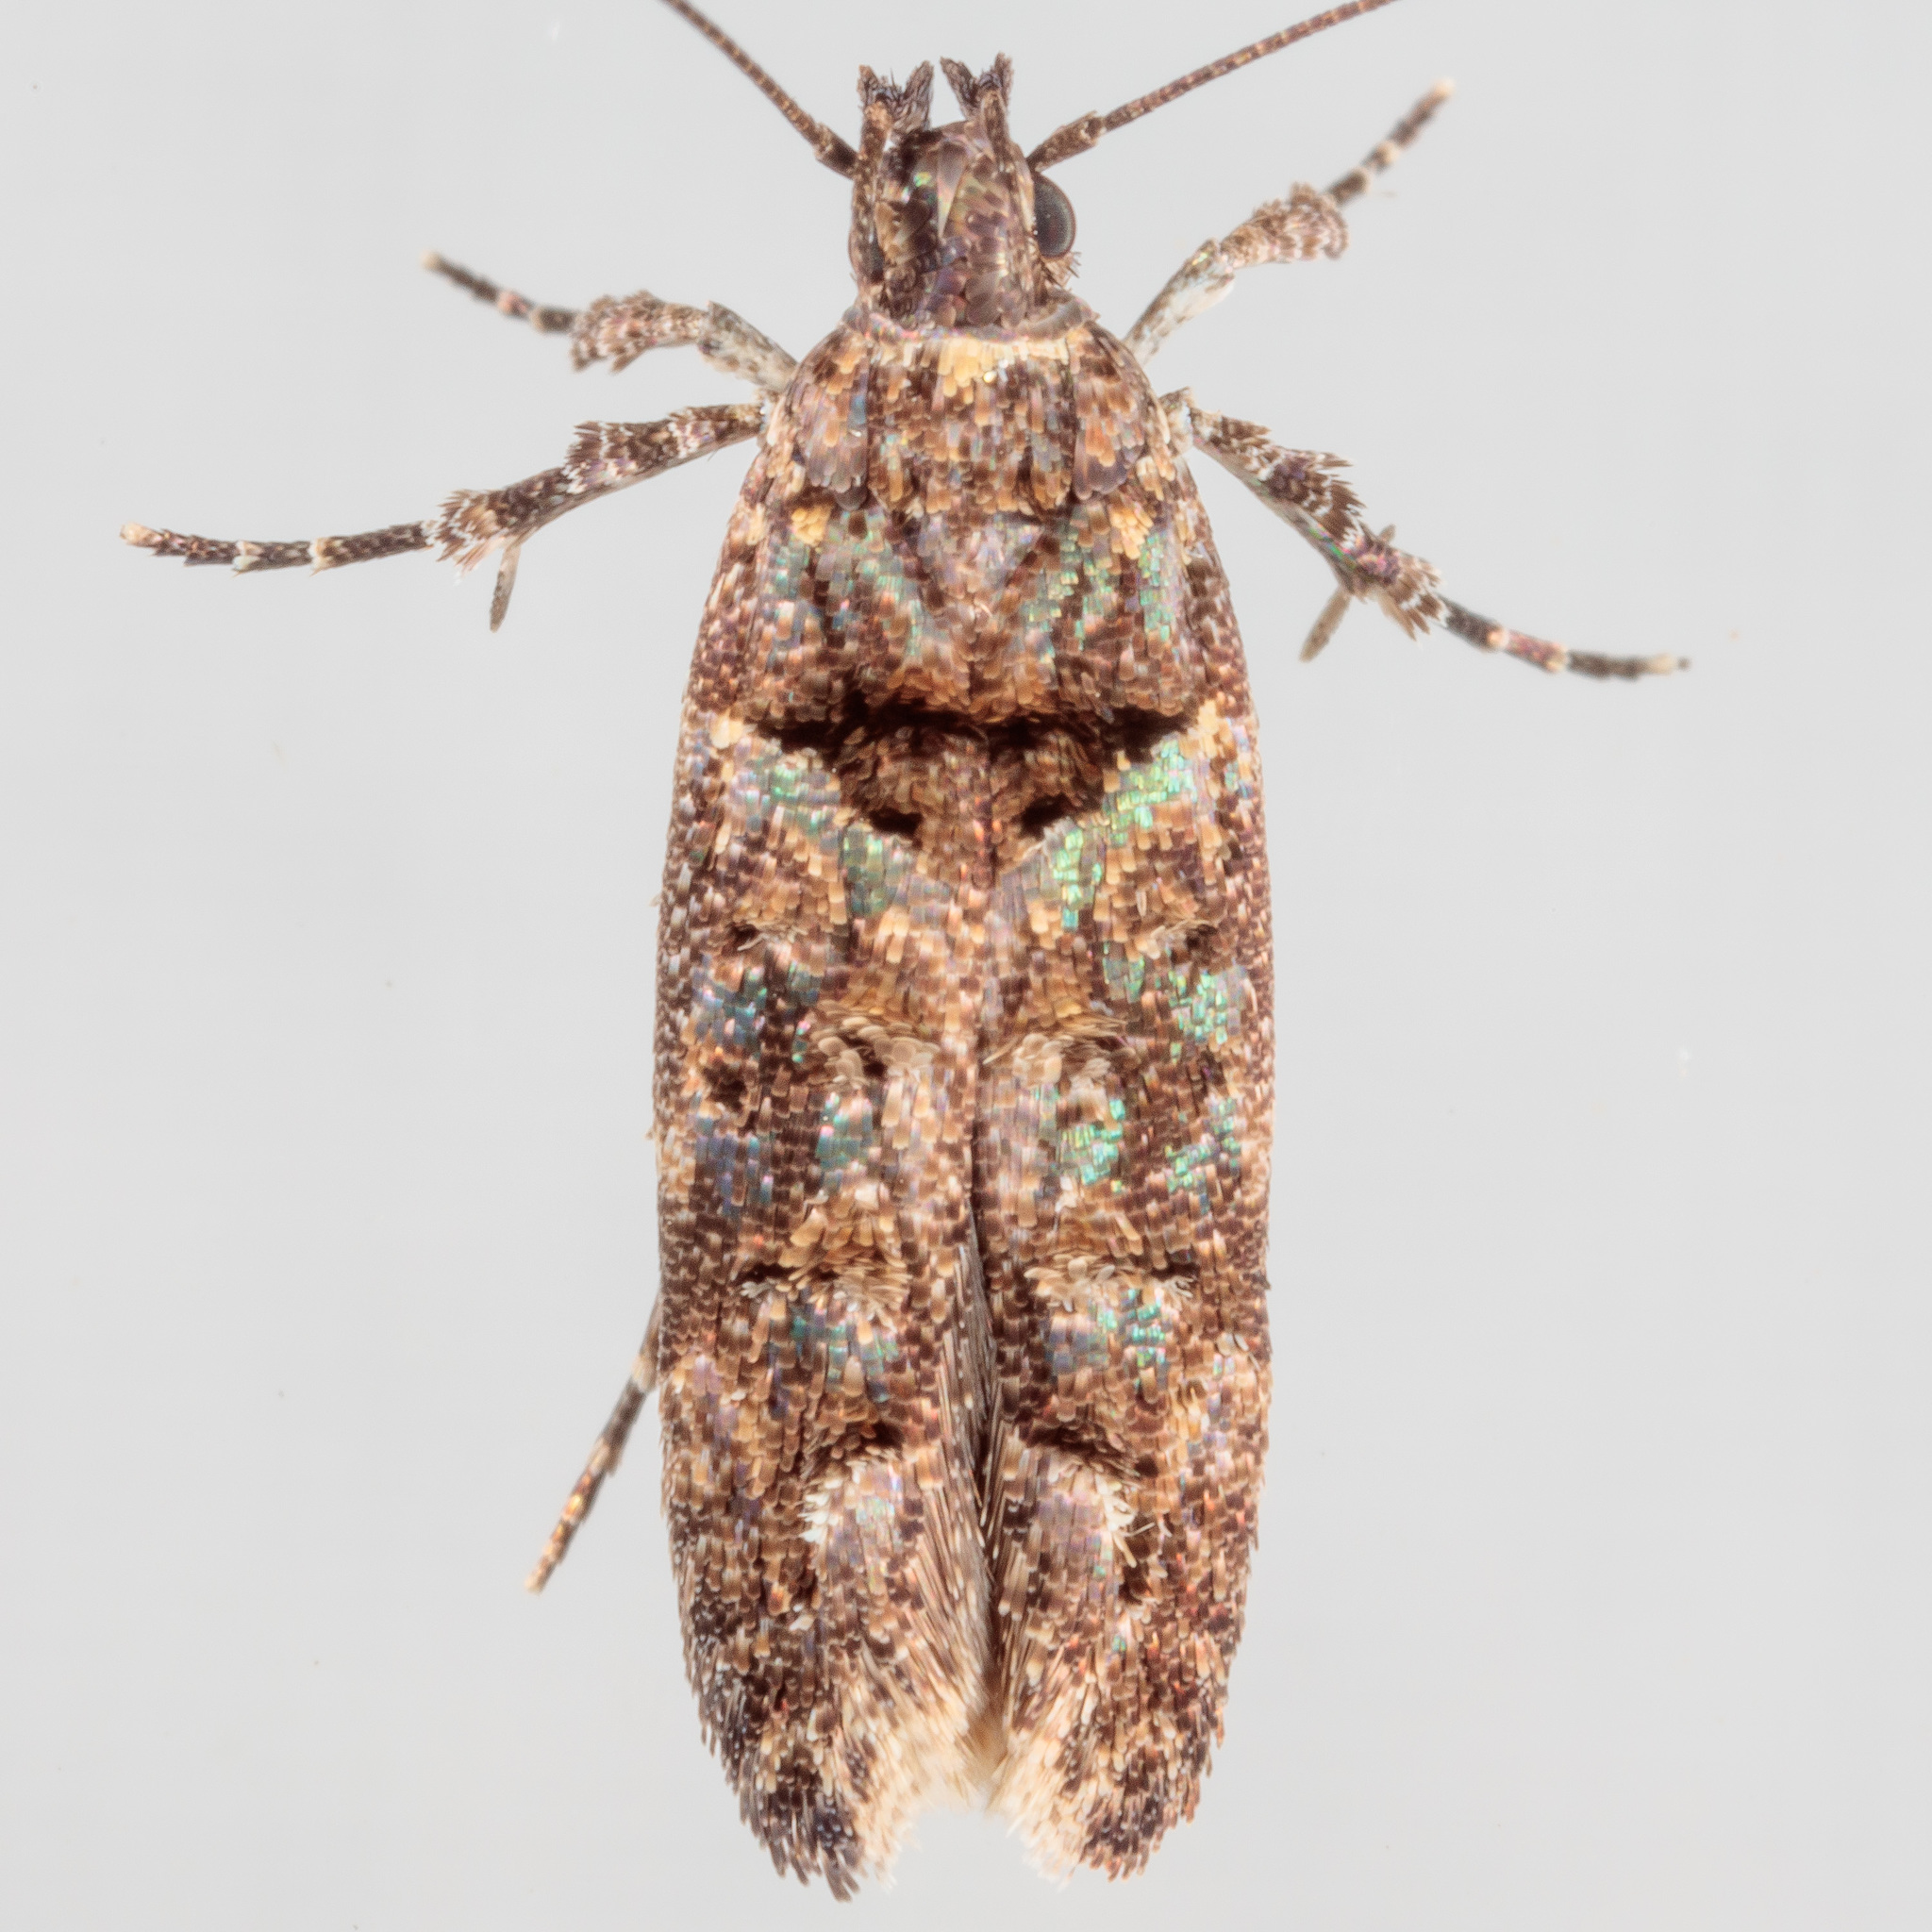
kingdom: Animalia
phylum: Arthropoda
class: Insecta
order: Lepidoptera
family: Gelechiidae
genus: Telphusa
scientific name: Telphusa perspicua
